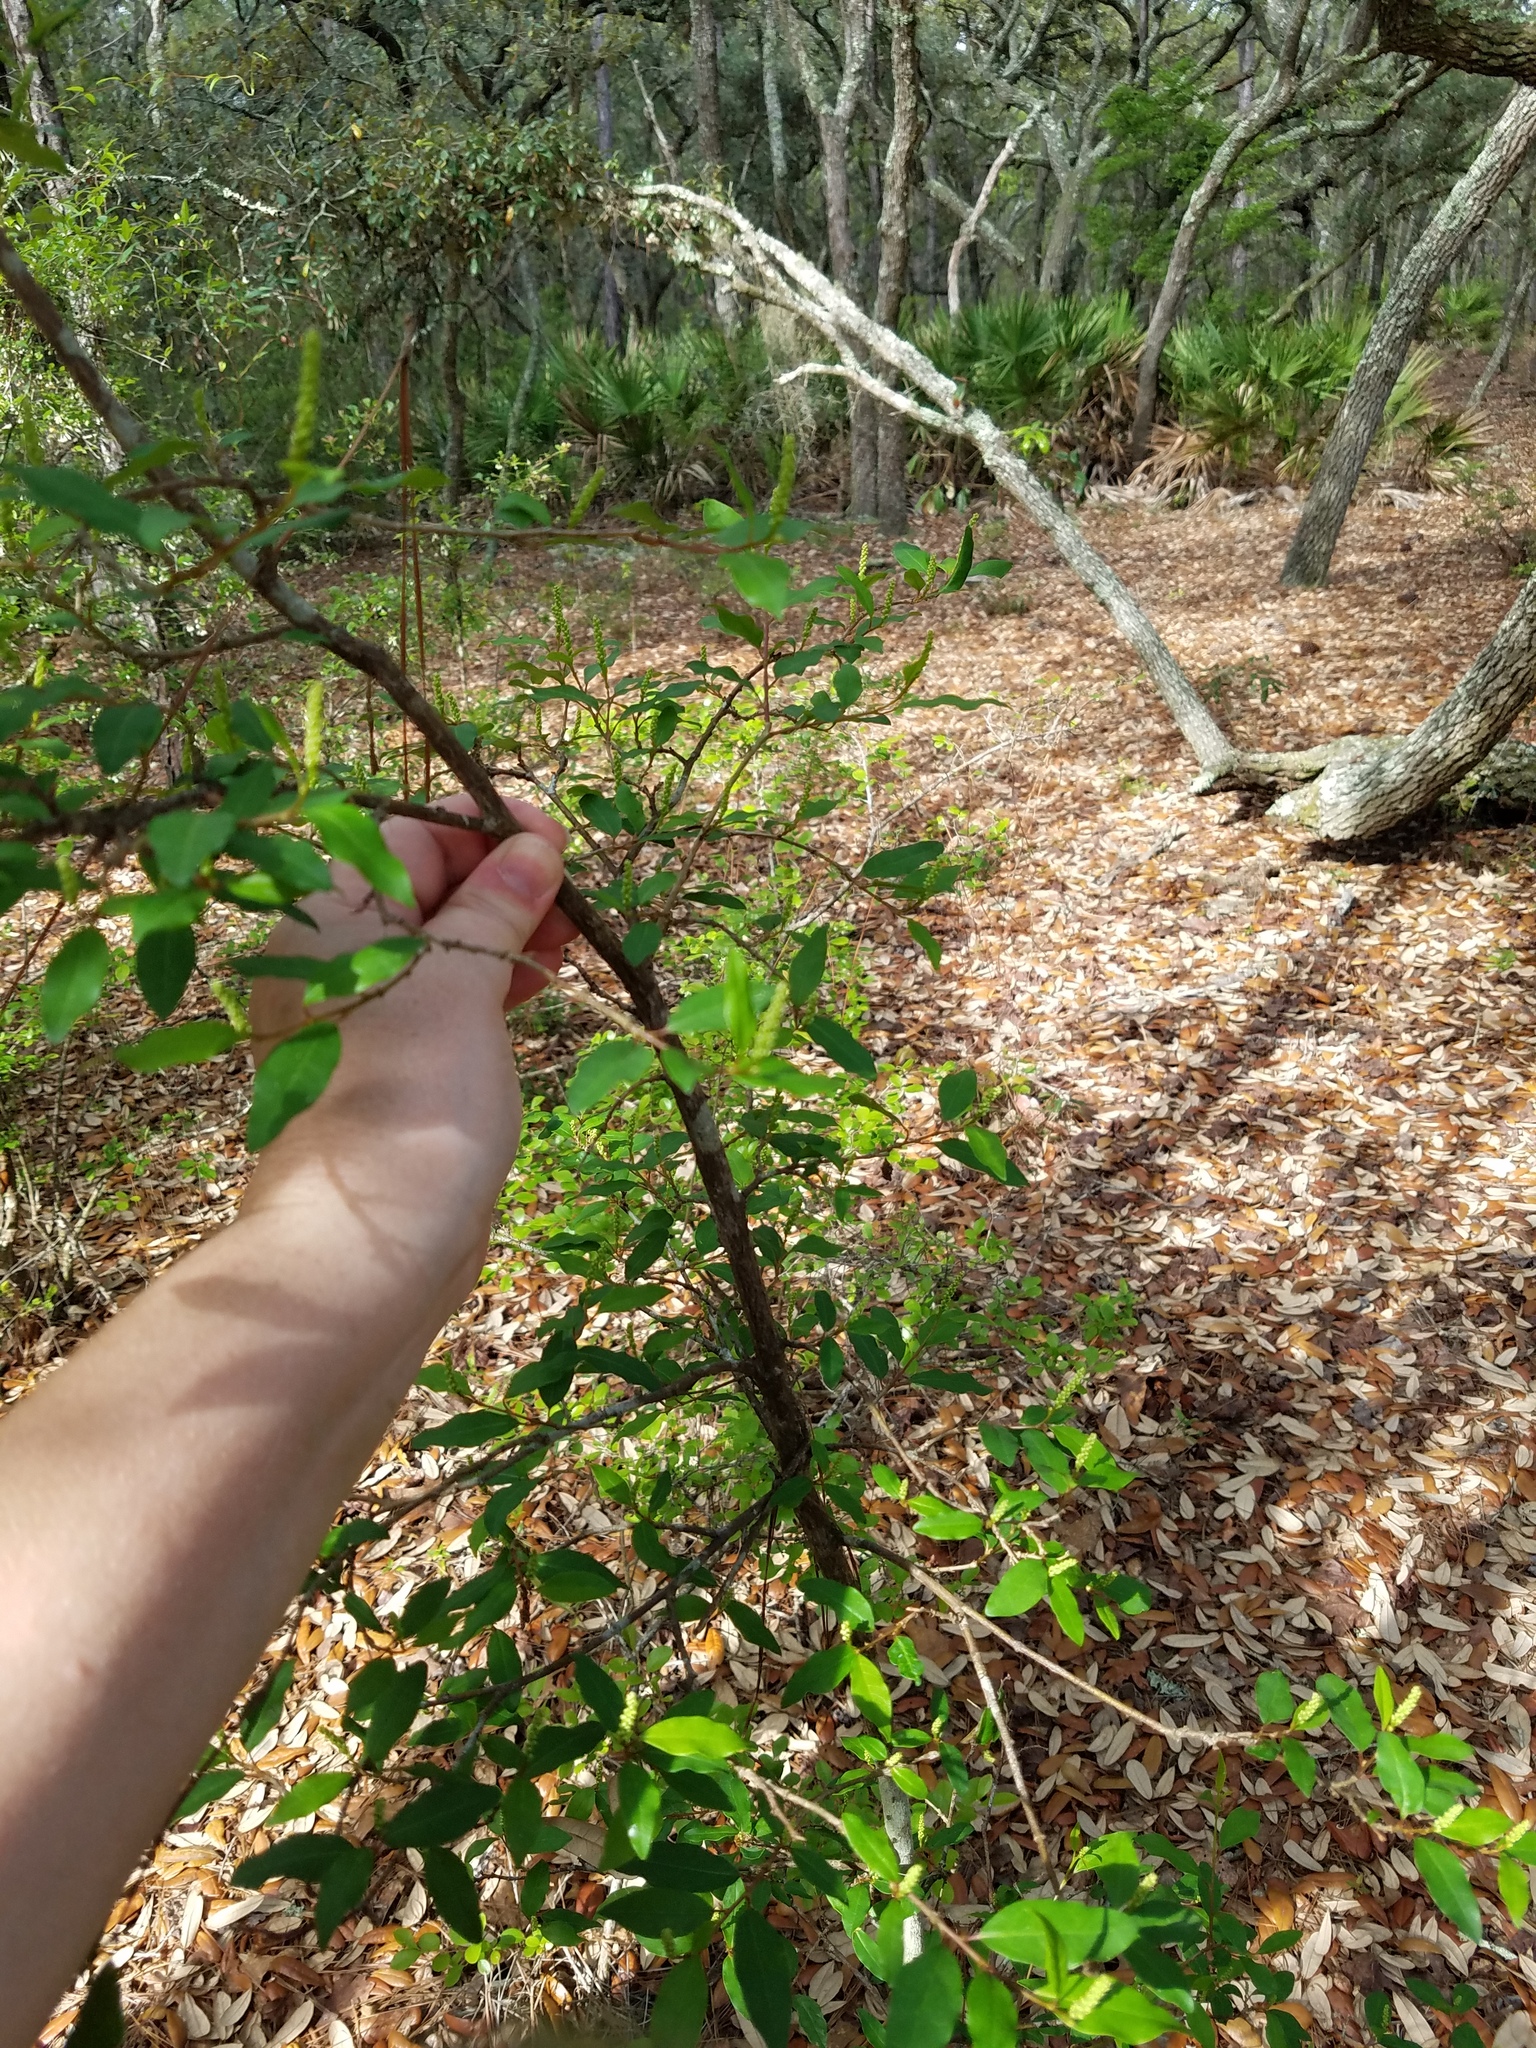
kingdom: Plantae
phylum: Tracheophyta
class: Magnoliopsida
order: Malpighiales
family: Euphorbiaceae
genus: Ditrysinia
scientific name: Ditrysinia fruticosa
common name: Gulf sebastian-bush
